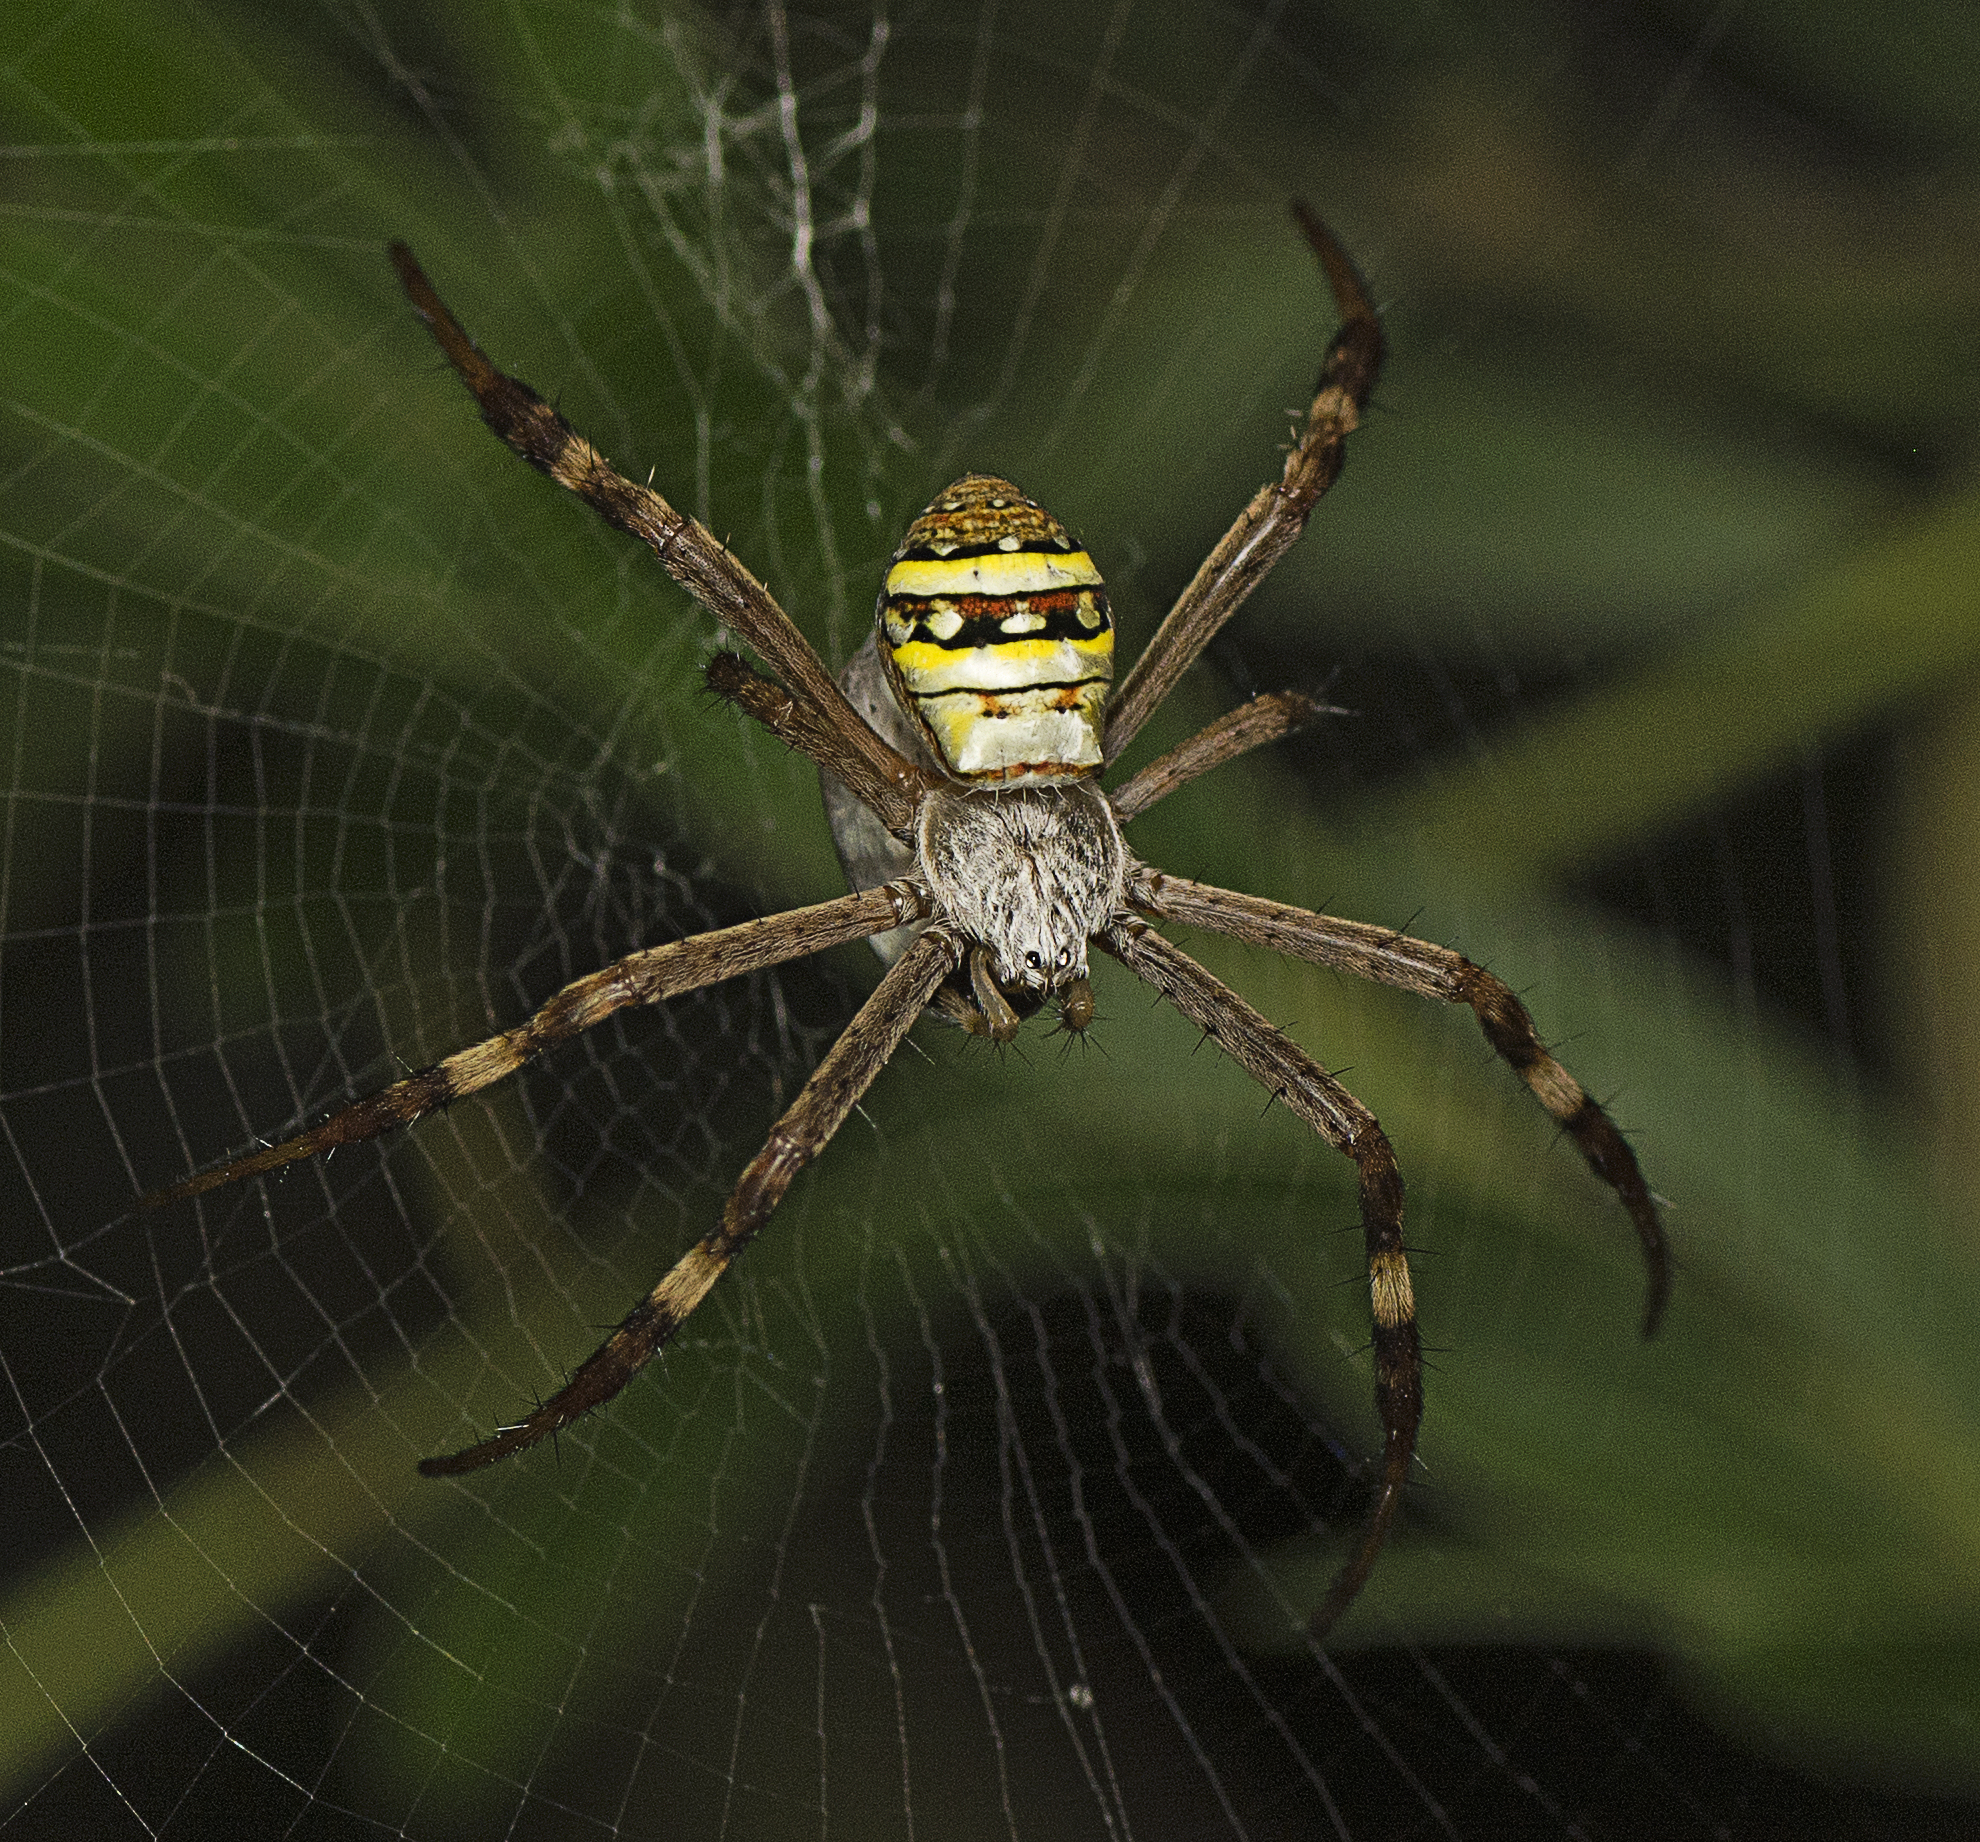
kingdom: Animalia
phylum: Arthropoda
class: Arachnida
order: Araneae
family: Araneidae
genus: Argiope
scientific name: Argiope keyserlingi
